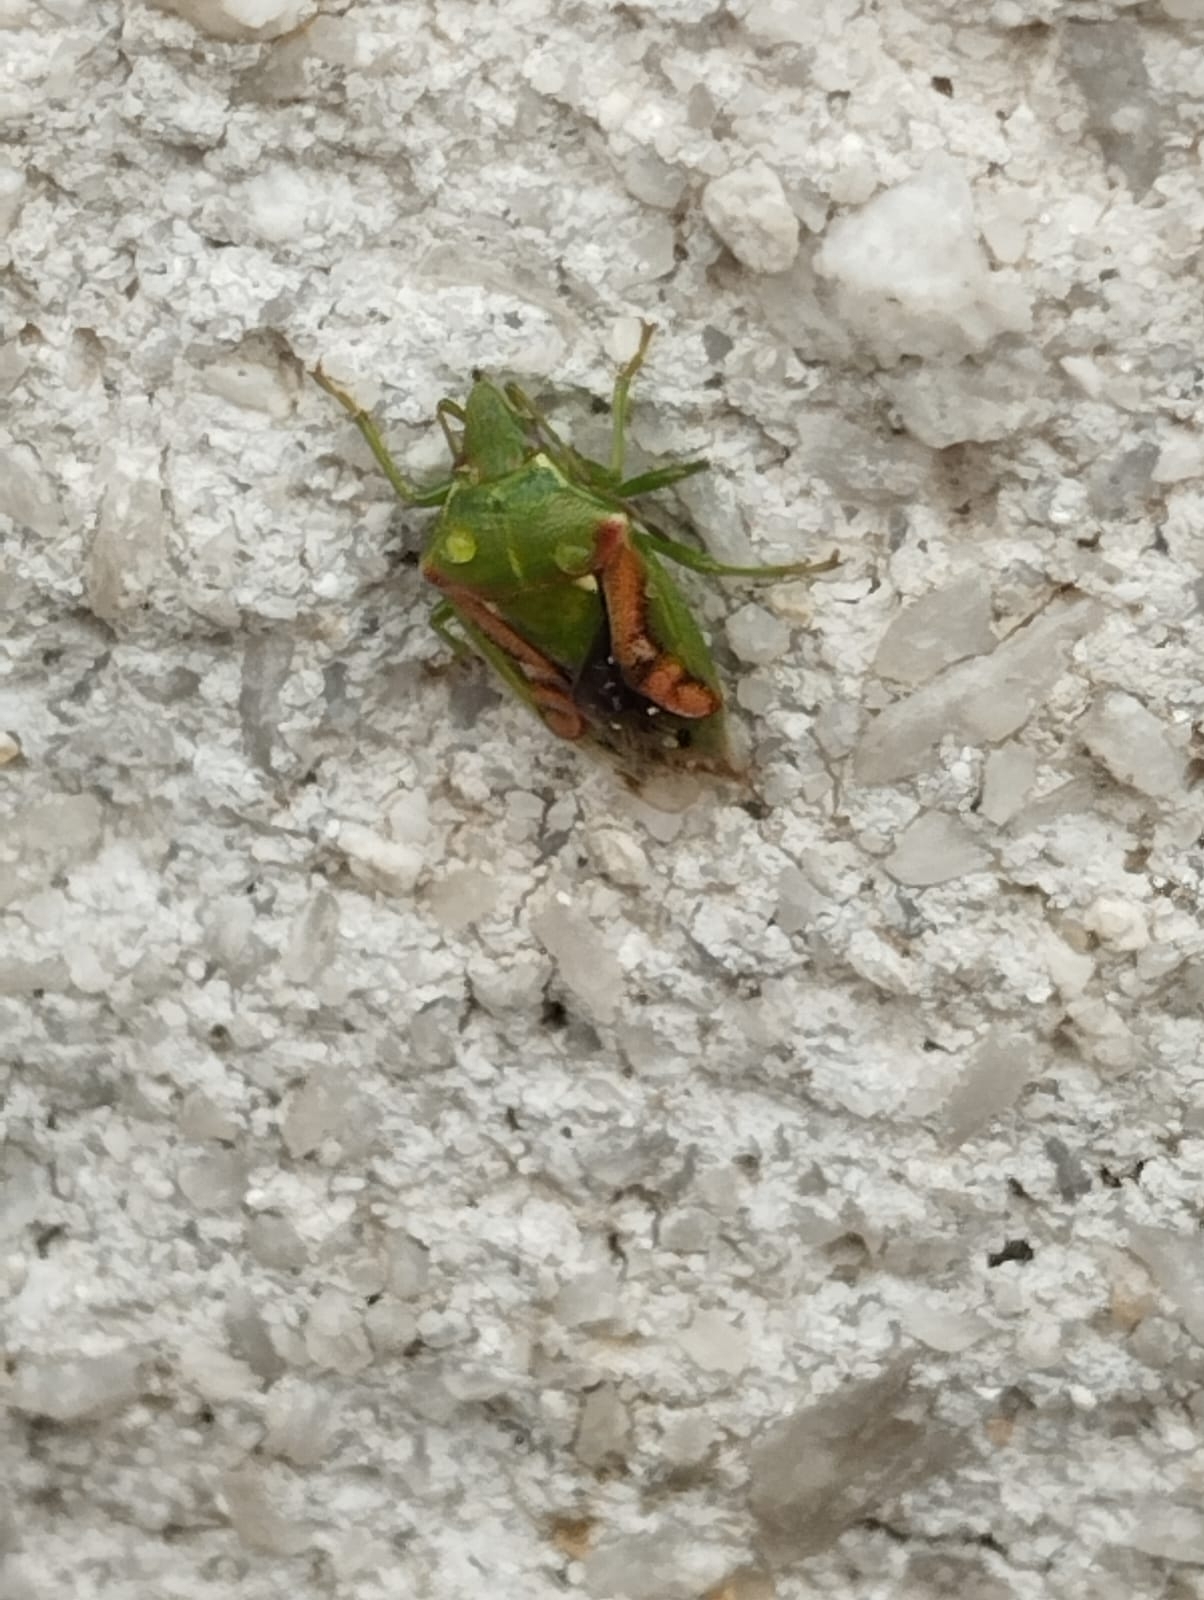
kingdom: Animalia
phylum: Arthropoda
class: Insecta
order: Hemiptera
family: Acanthosomatidae
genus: Cyphostethus
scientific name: Cyphostethus tristriatus
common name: Juniper shieldbug
